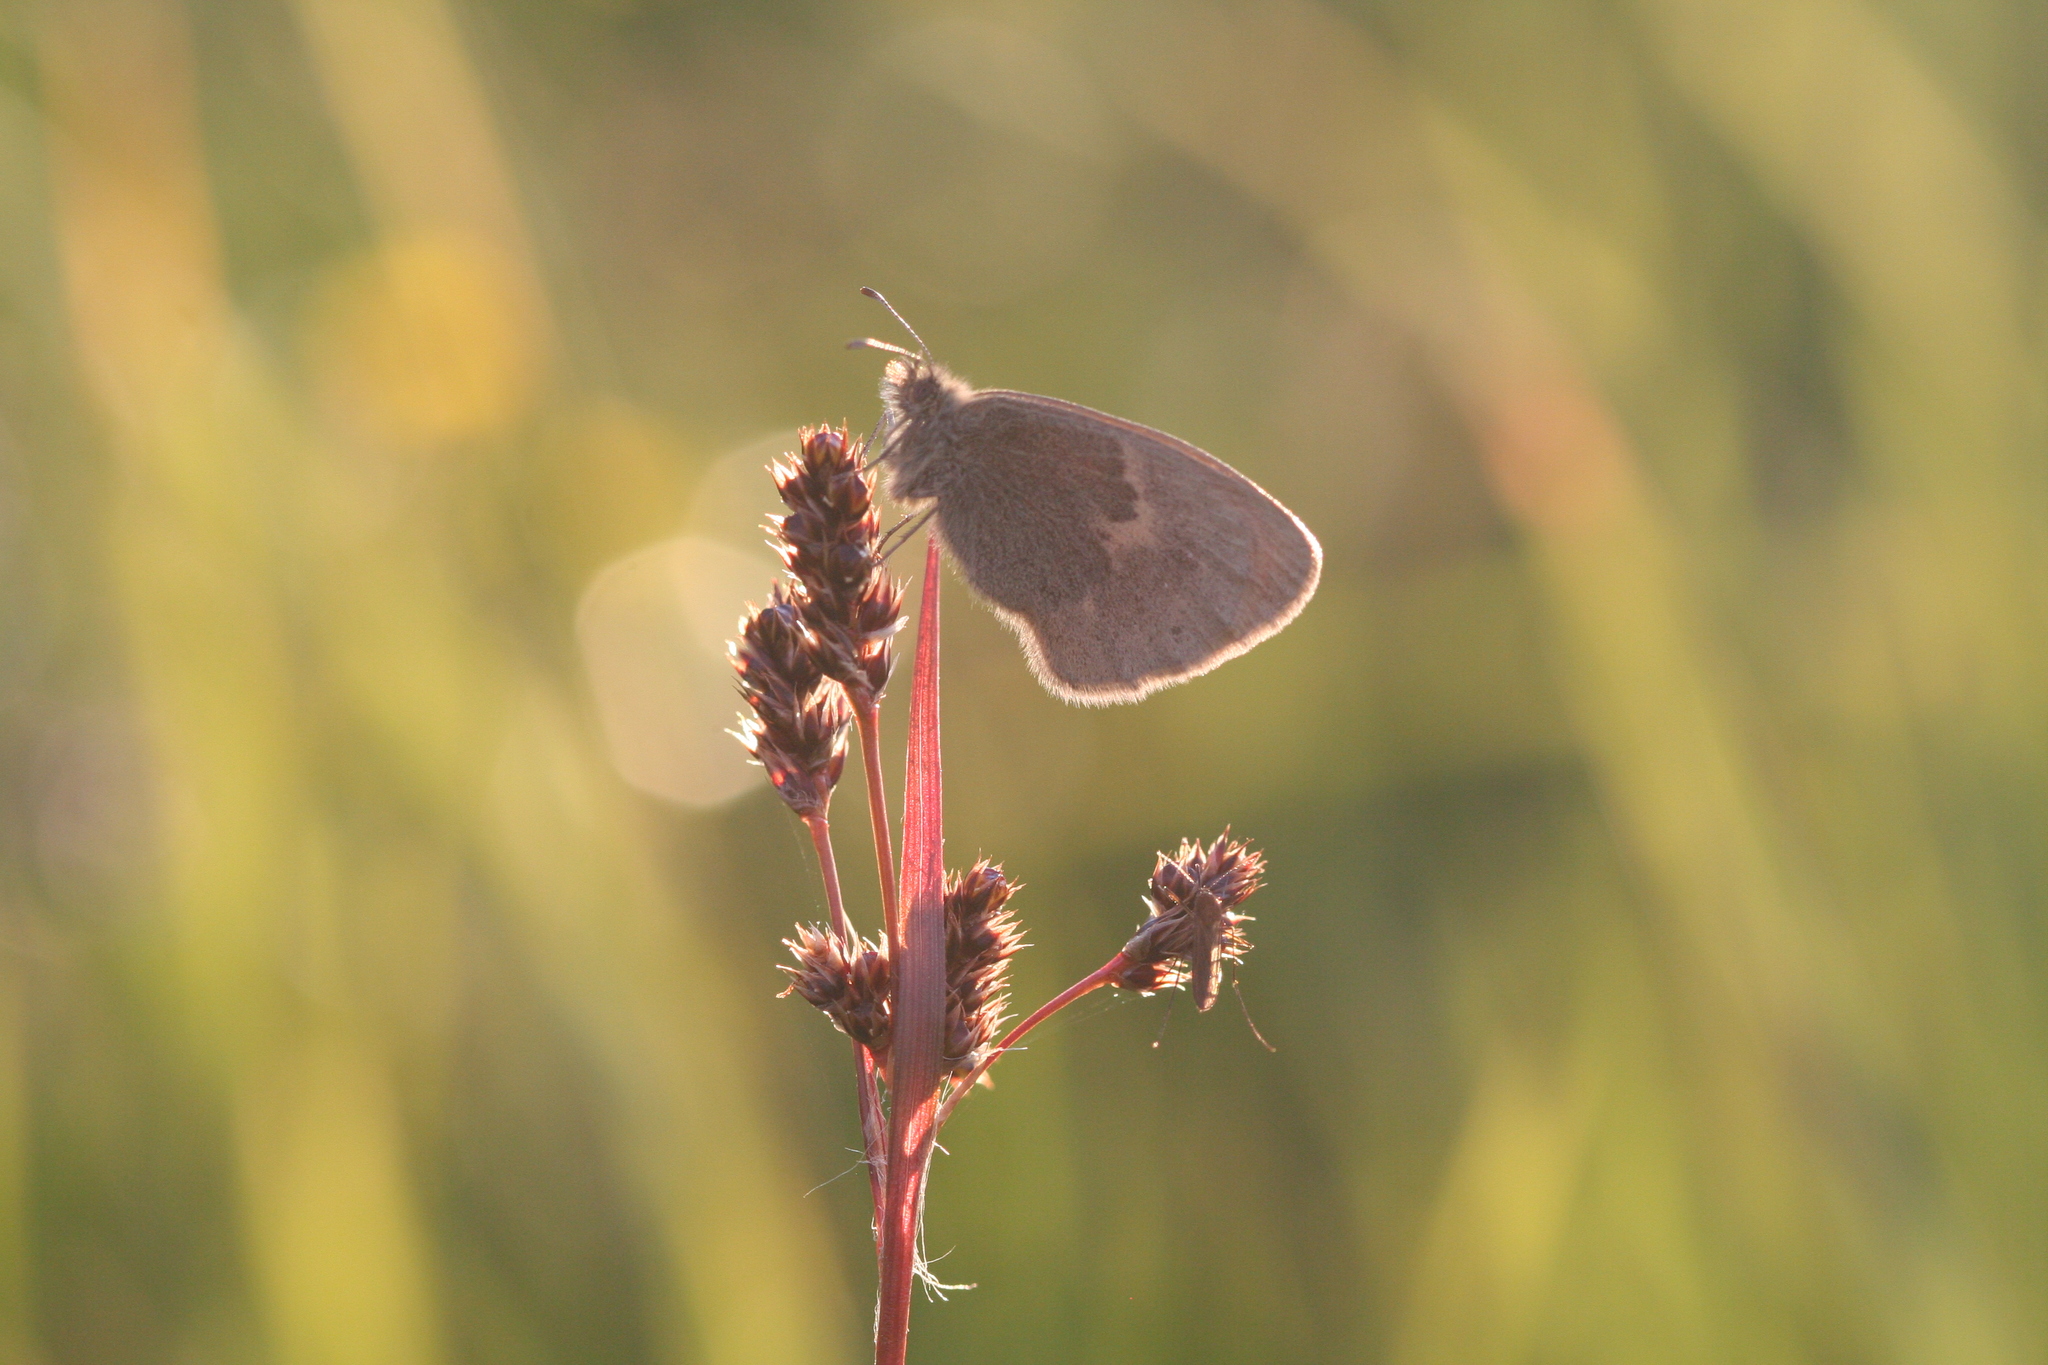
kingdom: Animalia
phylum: Arthropoda
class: Insecta
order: Lepidoptera
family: Nymphalidae
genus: Coenonympha
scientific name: Coenonympha pamphilus
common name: Small heath
